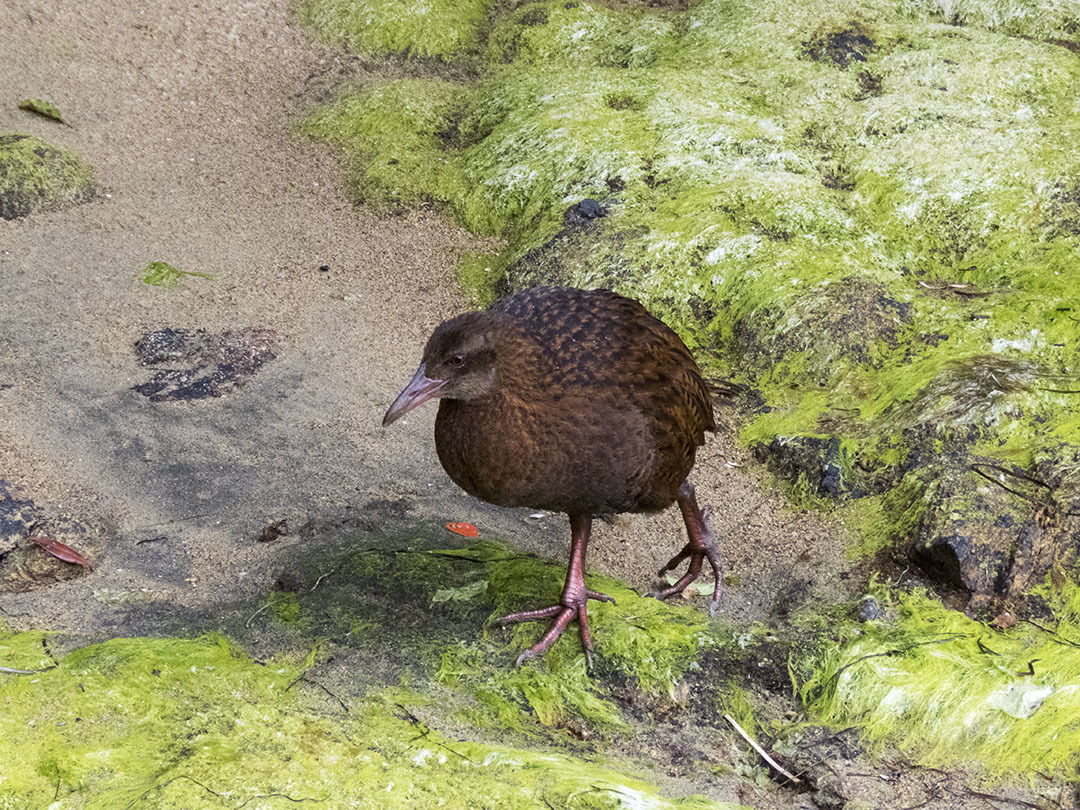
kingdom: Animalia
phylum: Chordata
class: Aves
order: Gruiformes
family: Rallidae
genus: Gallirallus
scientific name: Gallirallus australis
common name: Weka
